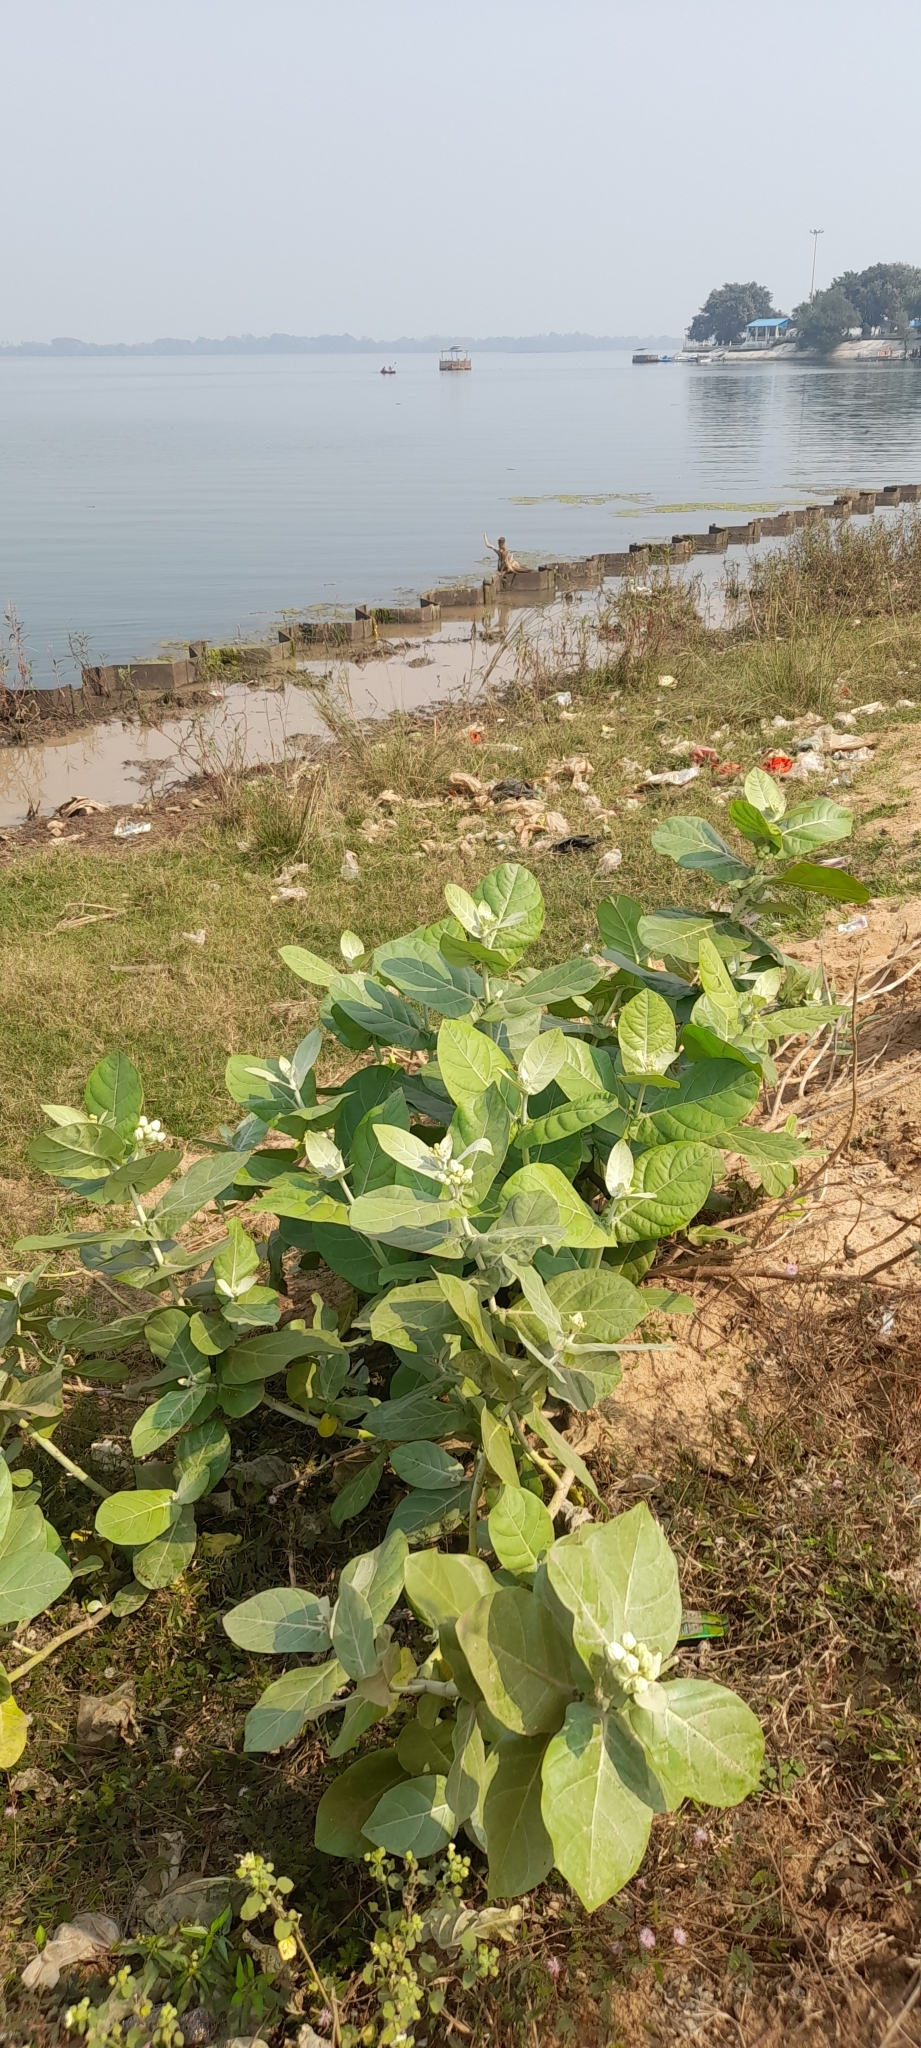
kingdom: Plantae
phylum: Tracheophyta
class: Magnoliopsida
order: Gentianales
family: Apocynaceae
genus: Calotropis
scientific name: Calotropis gigantea
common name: Crown flower
